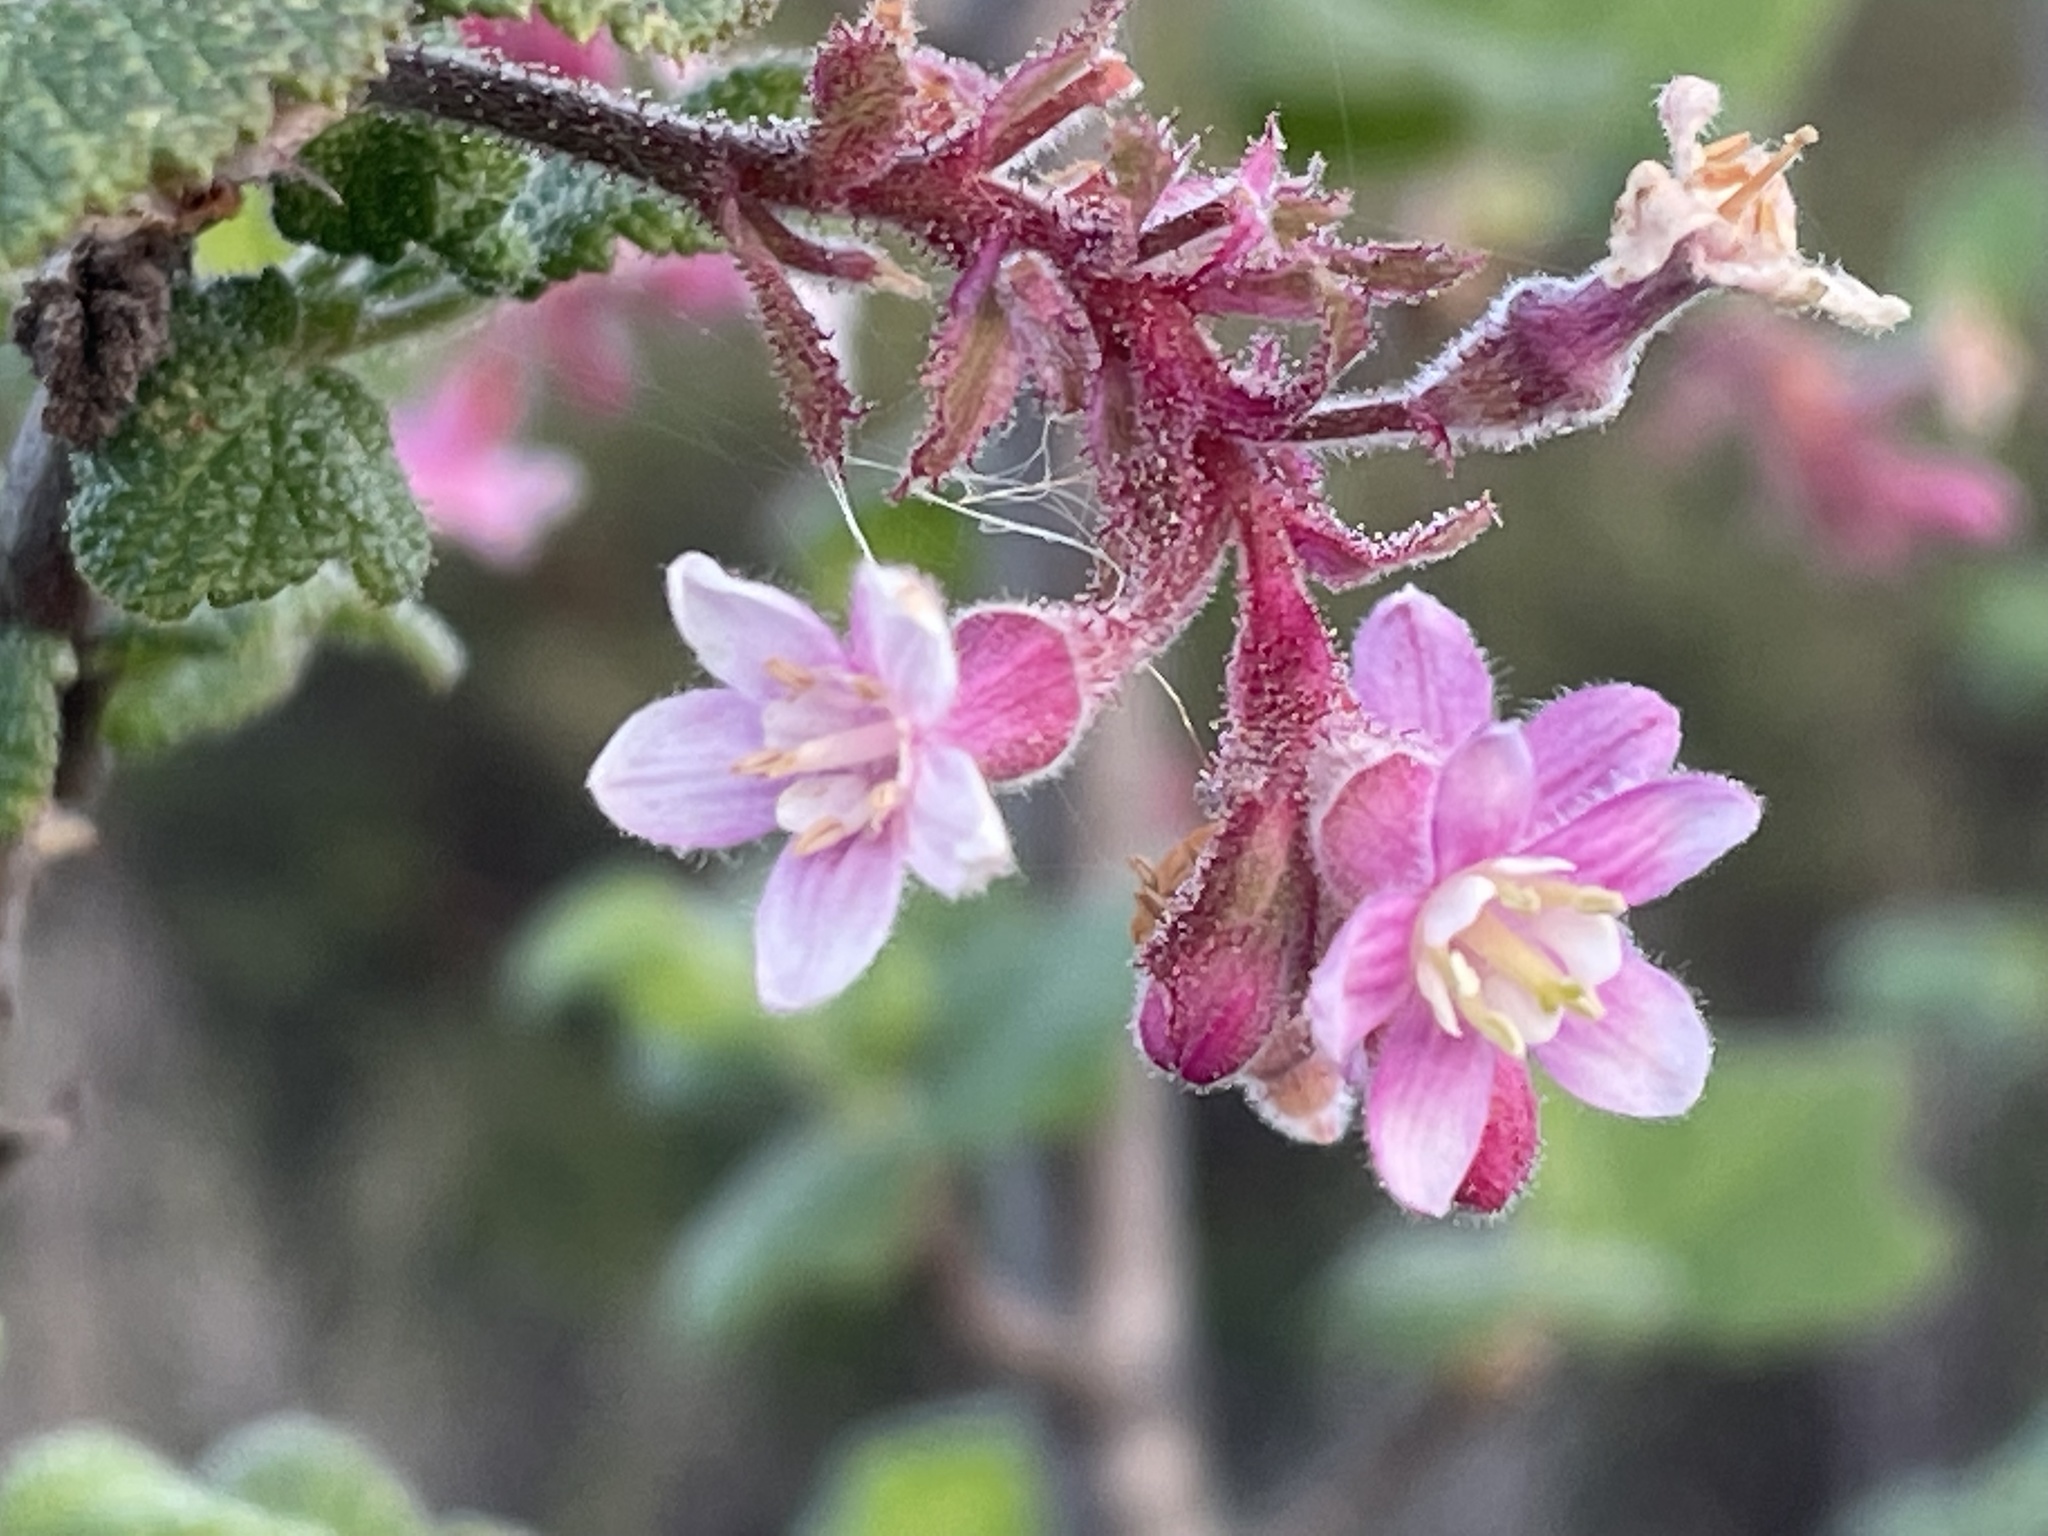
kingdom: Plantae
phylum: Tracheophyta
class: Magnoliopsida
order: Saxifragales
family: Grossulariaceae
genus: Ribes
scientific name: Ribes malvaceum
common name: Chaparral currant
